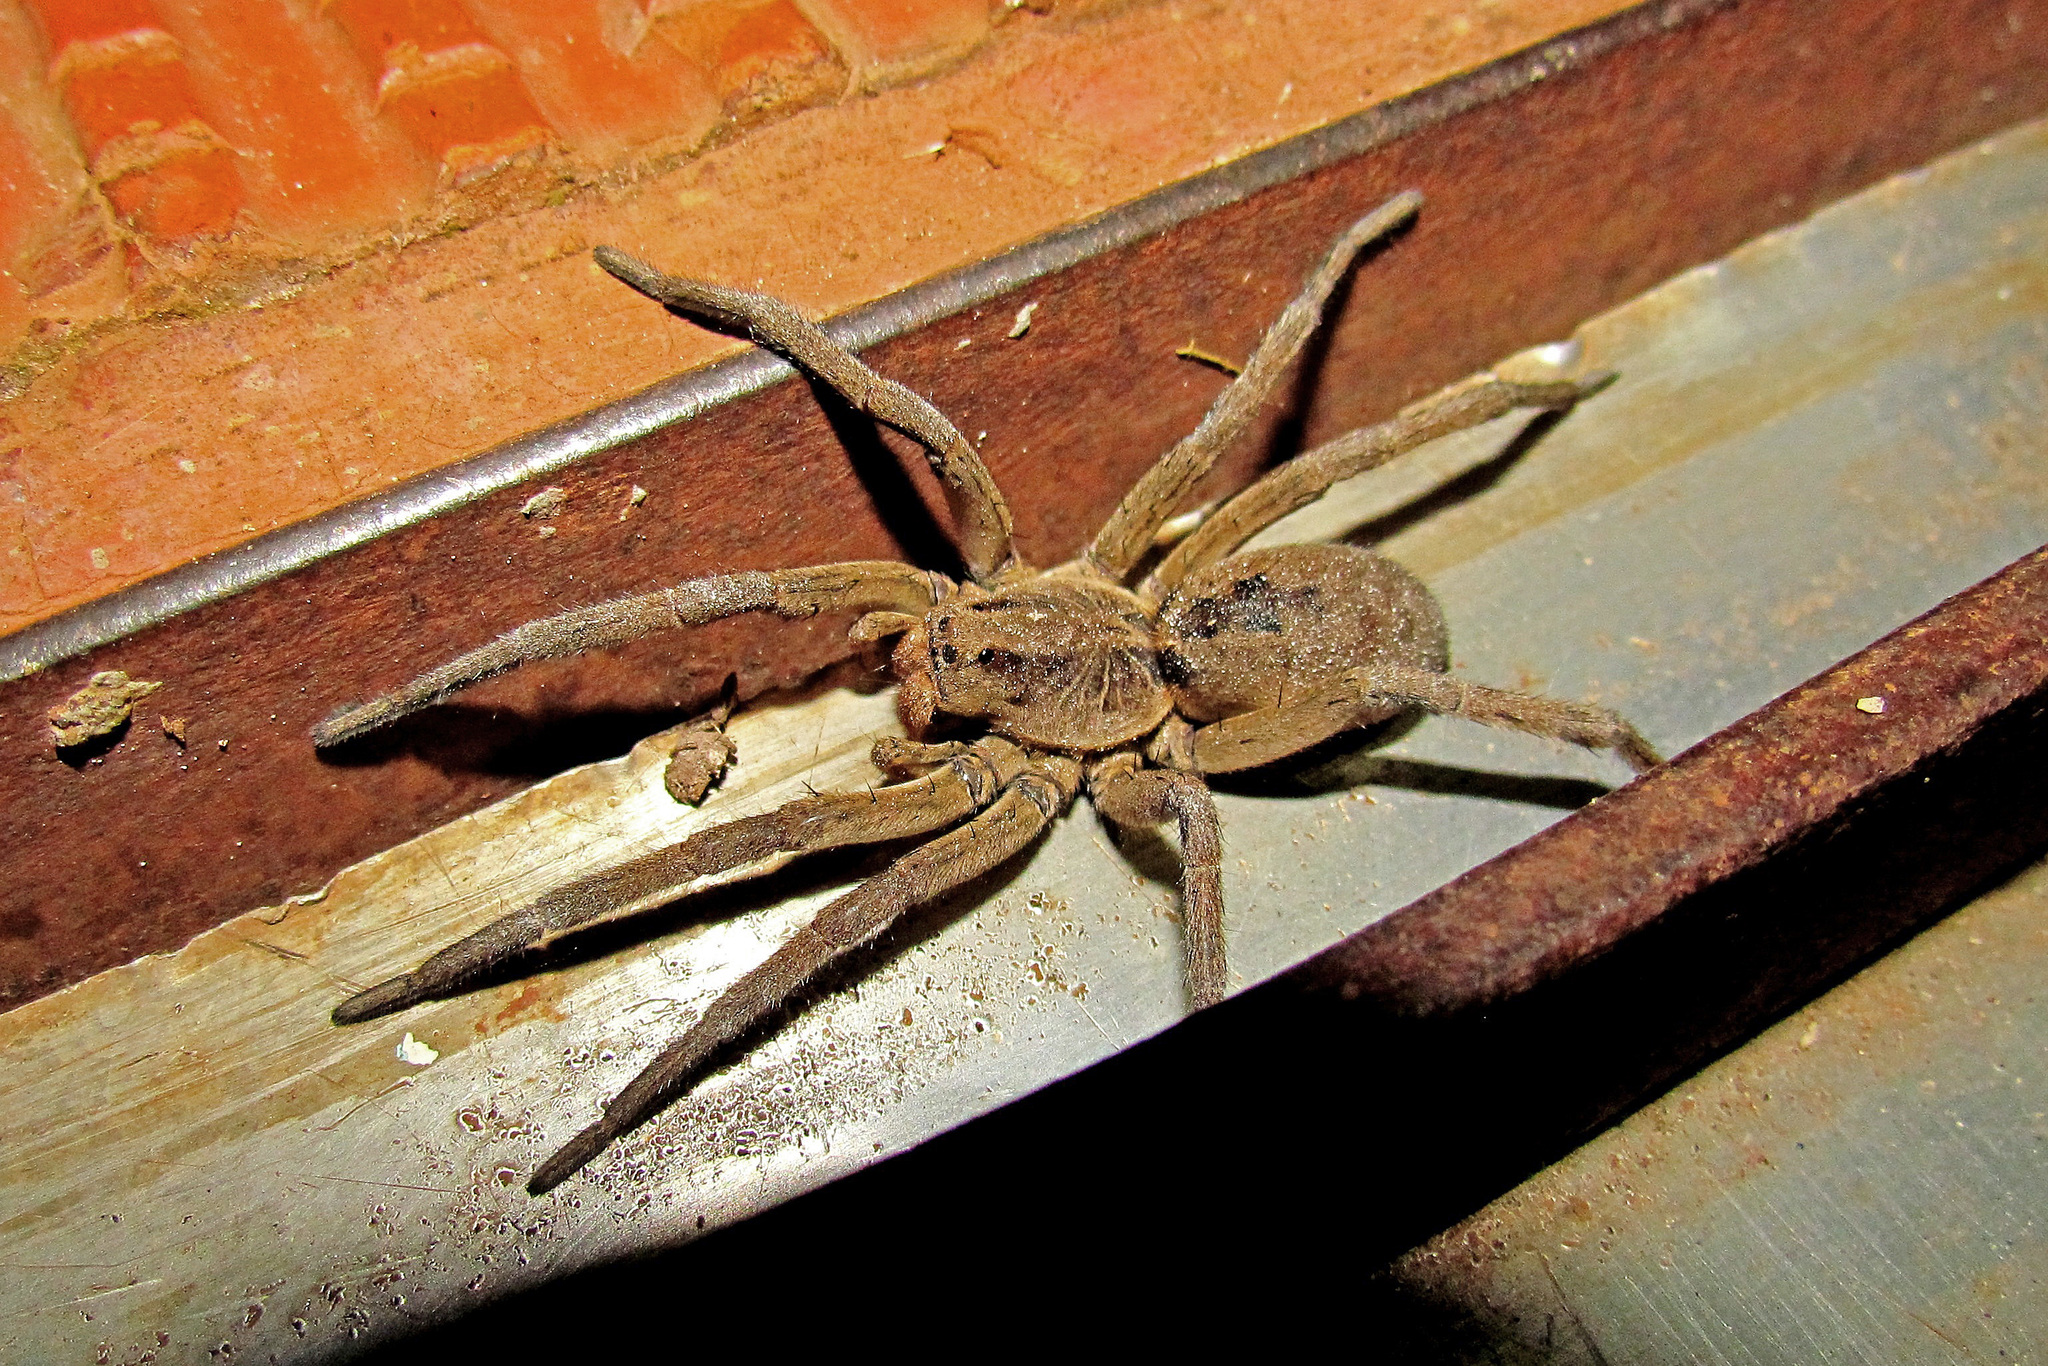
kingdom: Animalia
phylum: Arthropoda
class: Arachnida
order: Araneae
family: Lycosidae
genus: Lycosa
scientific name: Lycosa erythrognatha
